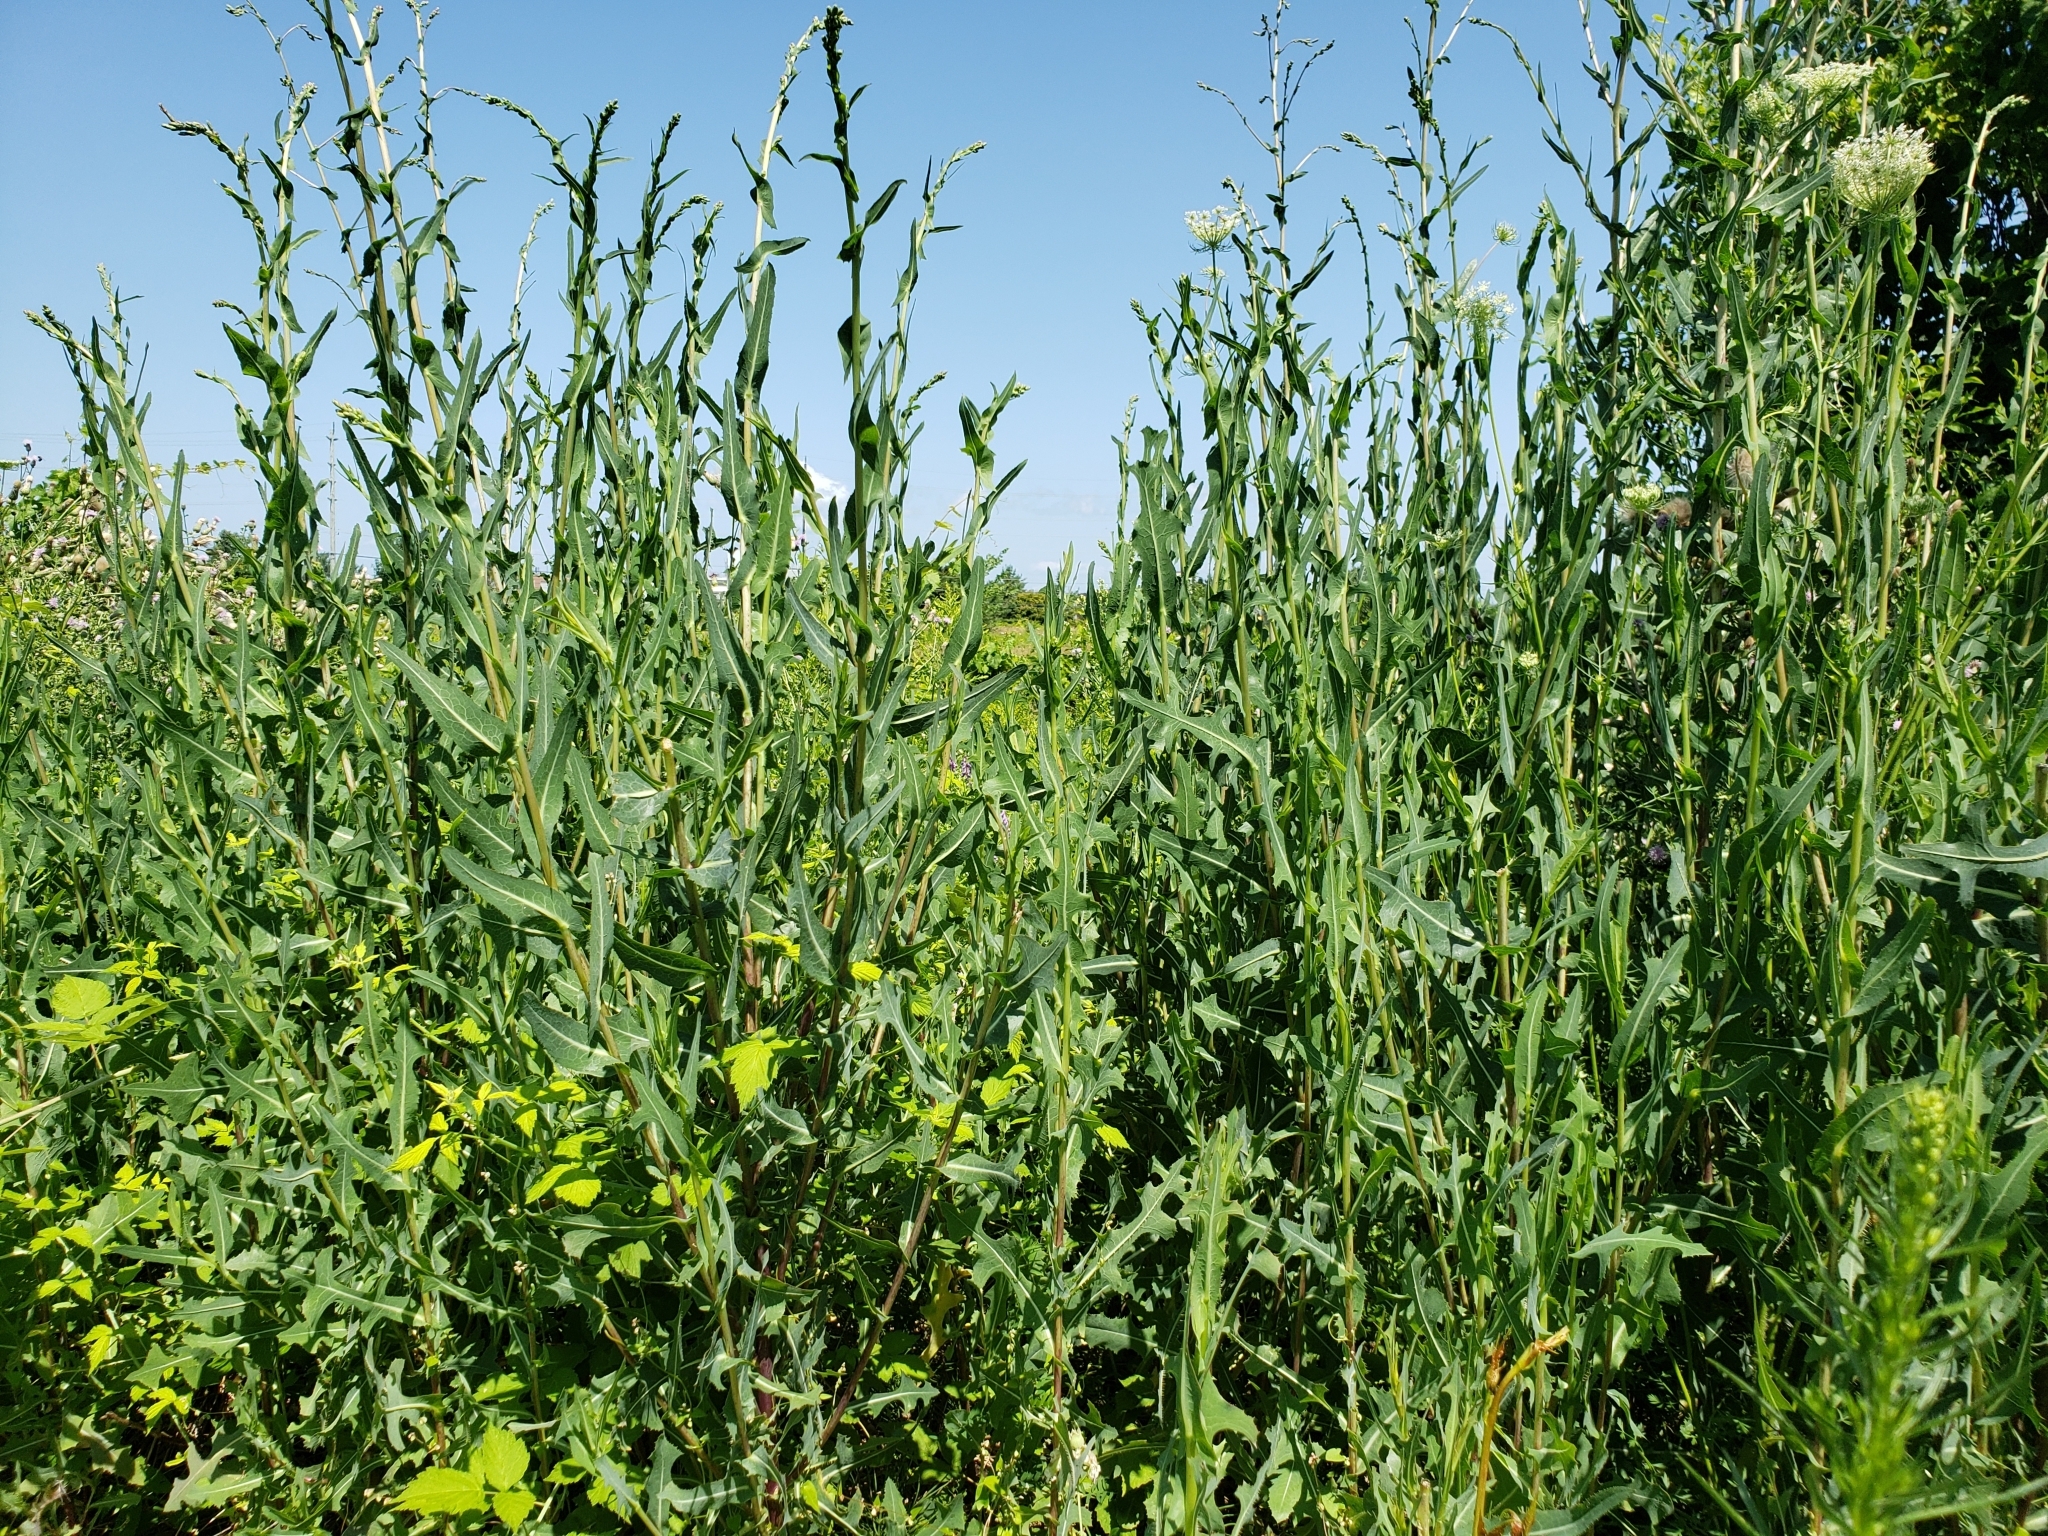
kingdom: Plantae
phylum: Tracheophyta
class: Magnoliopsida
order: Asterales
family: Asteraceae
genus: Lactuca
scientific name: Lactuca serriola
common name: Prickly lettuce
